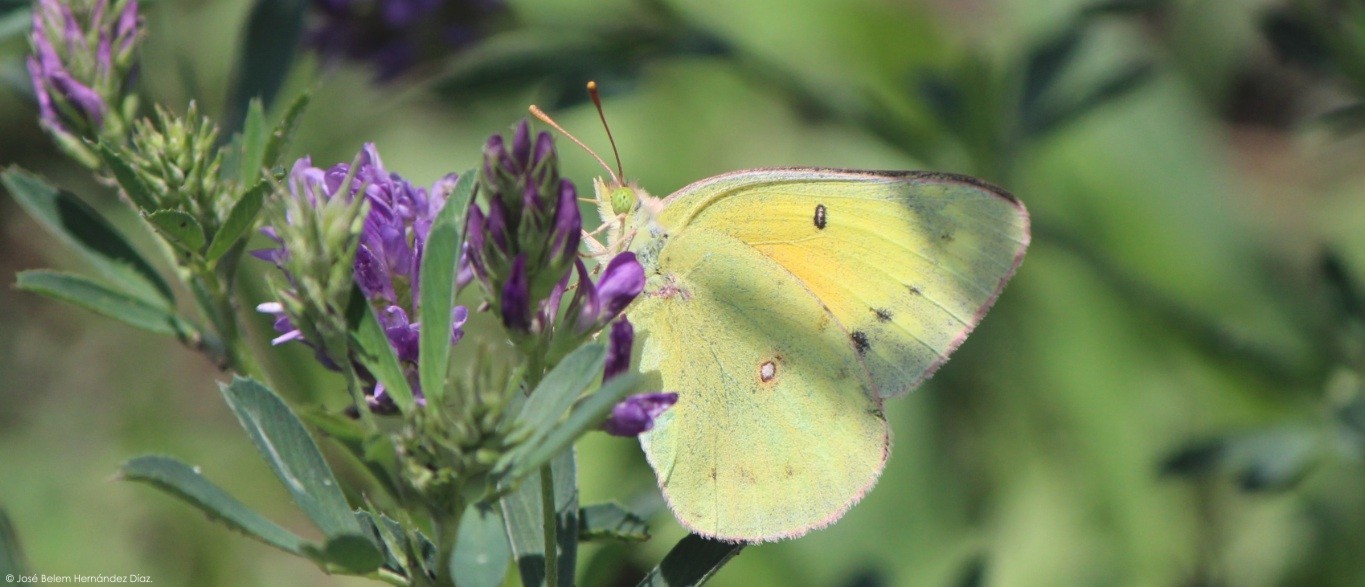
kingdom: Animalia
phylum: Arthropoda
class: Insecta
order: Lepidoptera
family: Pieridae
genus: Colias
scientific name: Colias eurytheme
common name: Alfalfa butterfly
